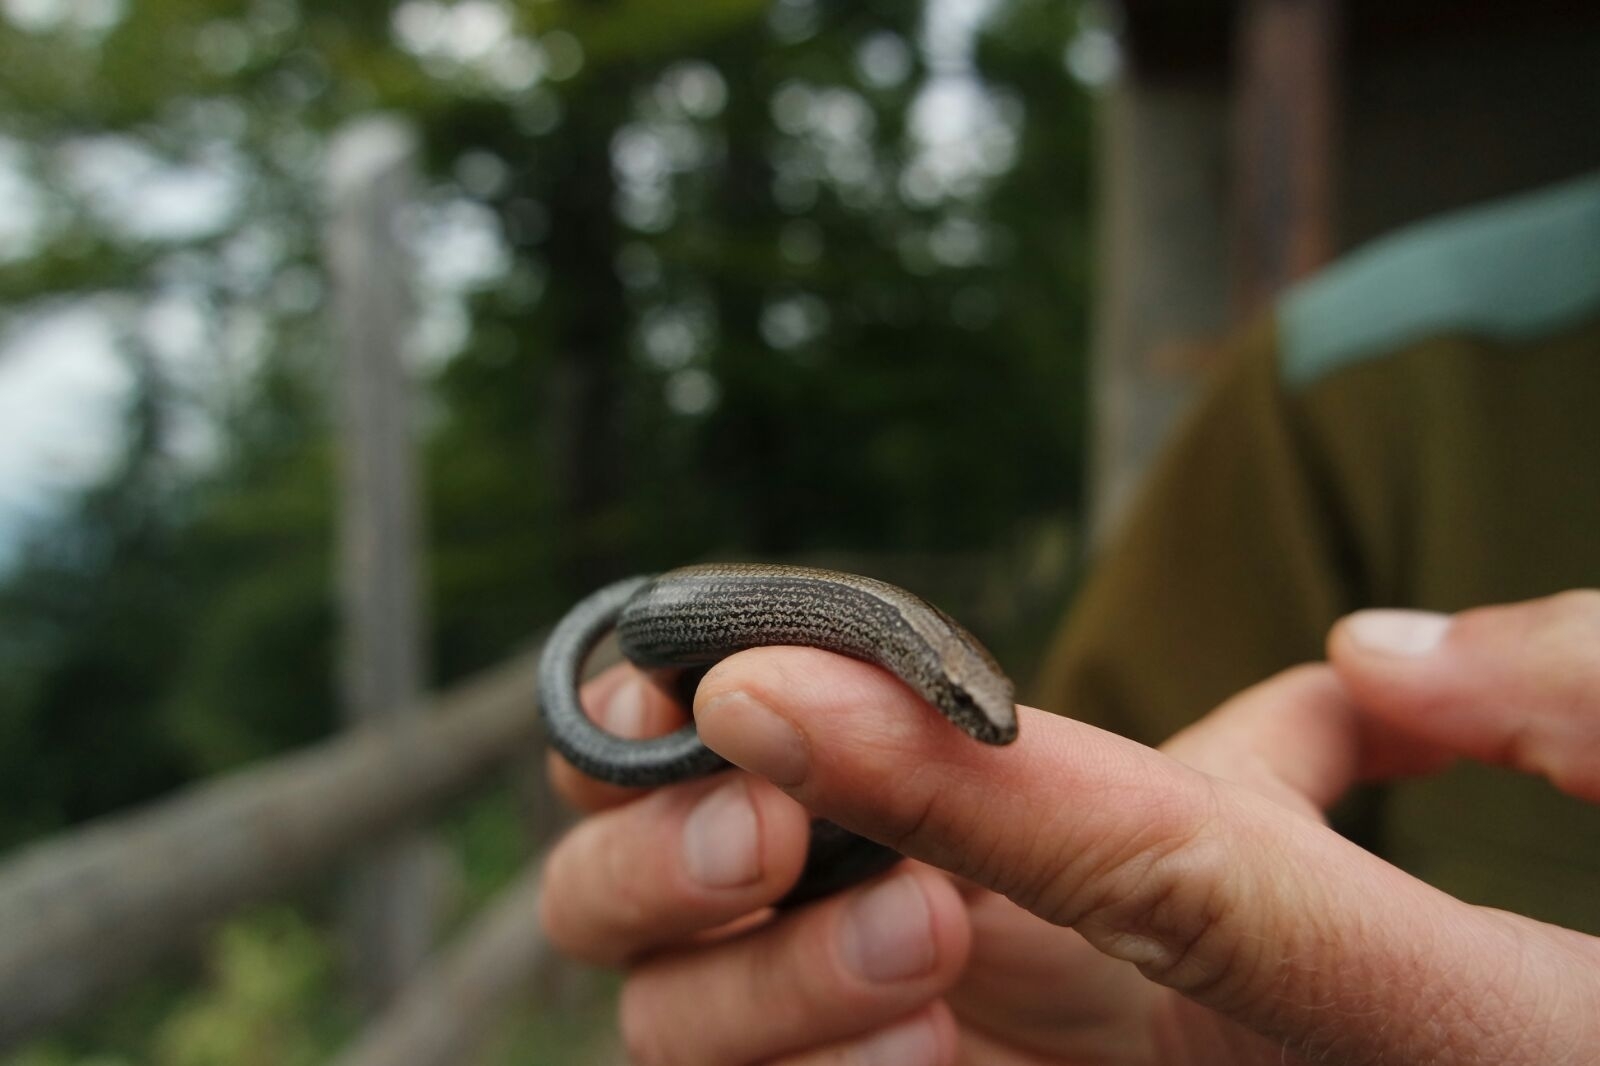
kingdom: Animalia
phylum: Chordata
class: Squamata
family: Anguidae
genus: Anguis
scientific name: Anguis veronensis
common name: Italian slow worm
